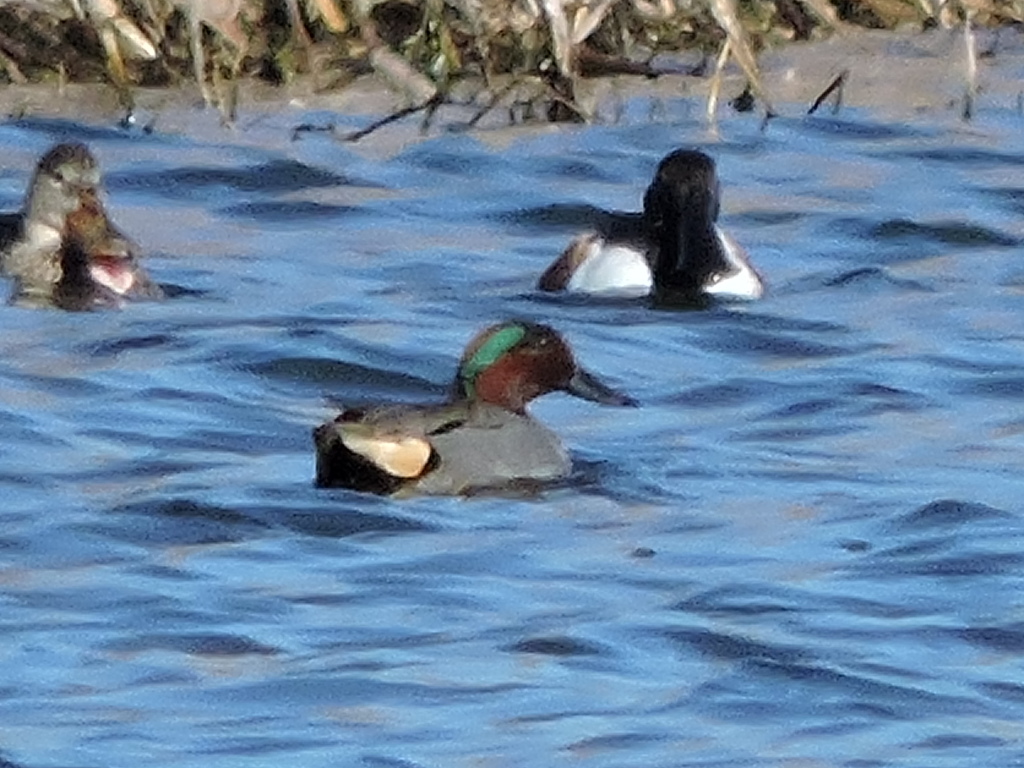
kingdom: Animalia
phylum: Chordata
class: Aves
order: Anseriformes
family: Anatidae
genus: Anas
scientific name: Anas crecca
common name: Eurasian teal
